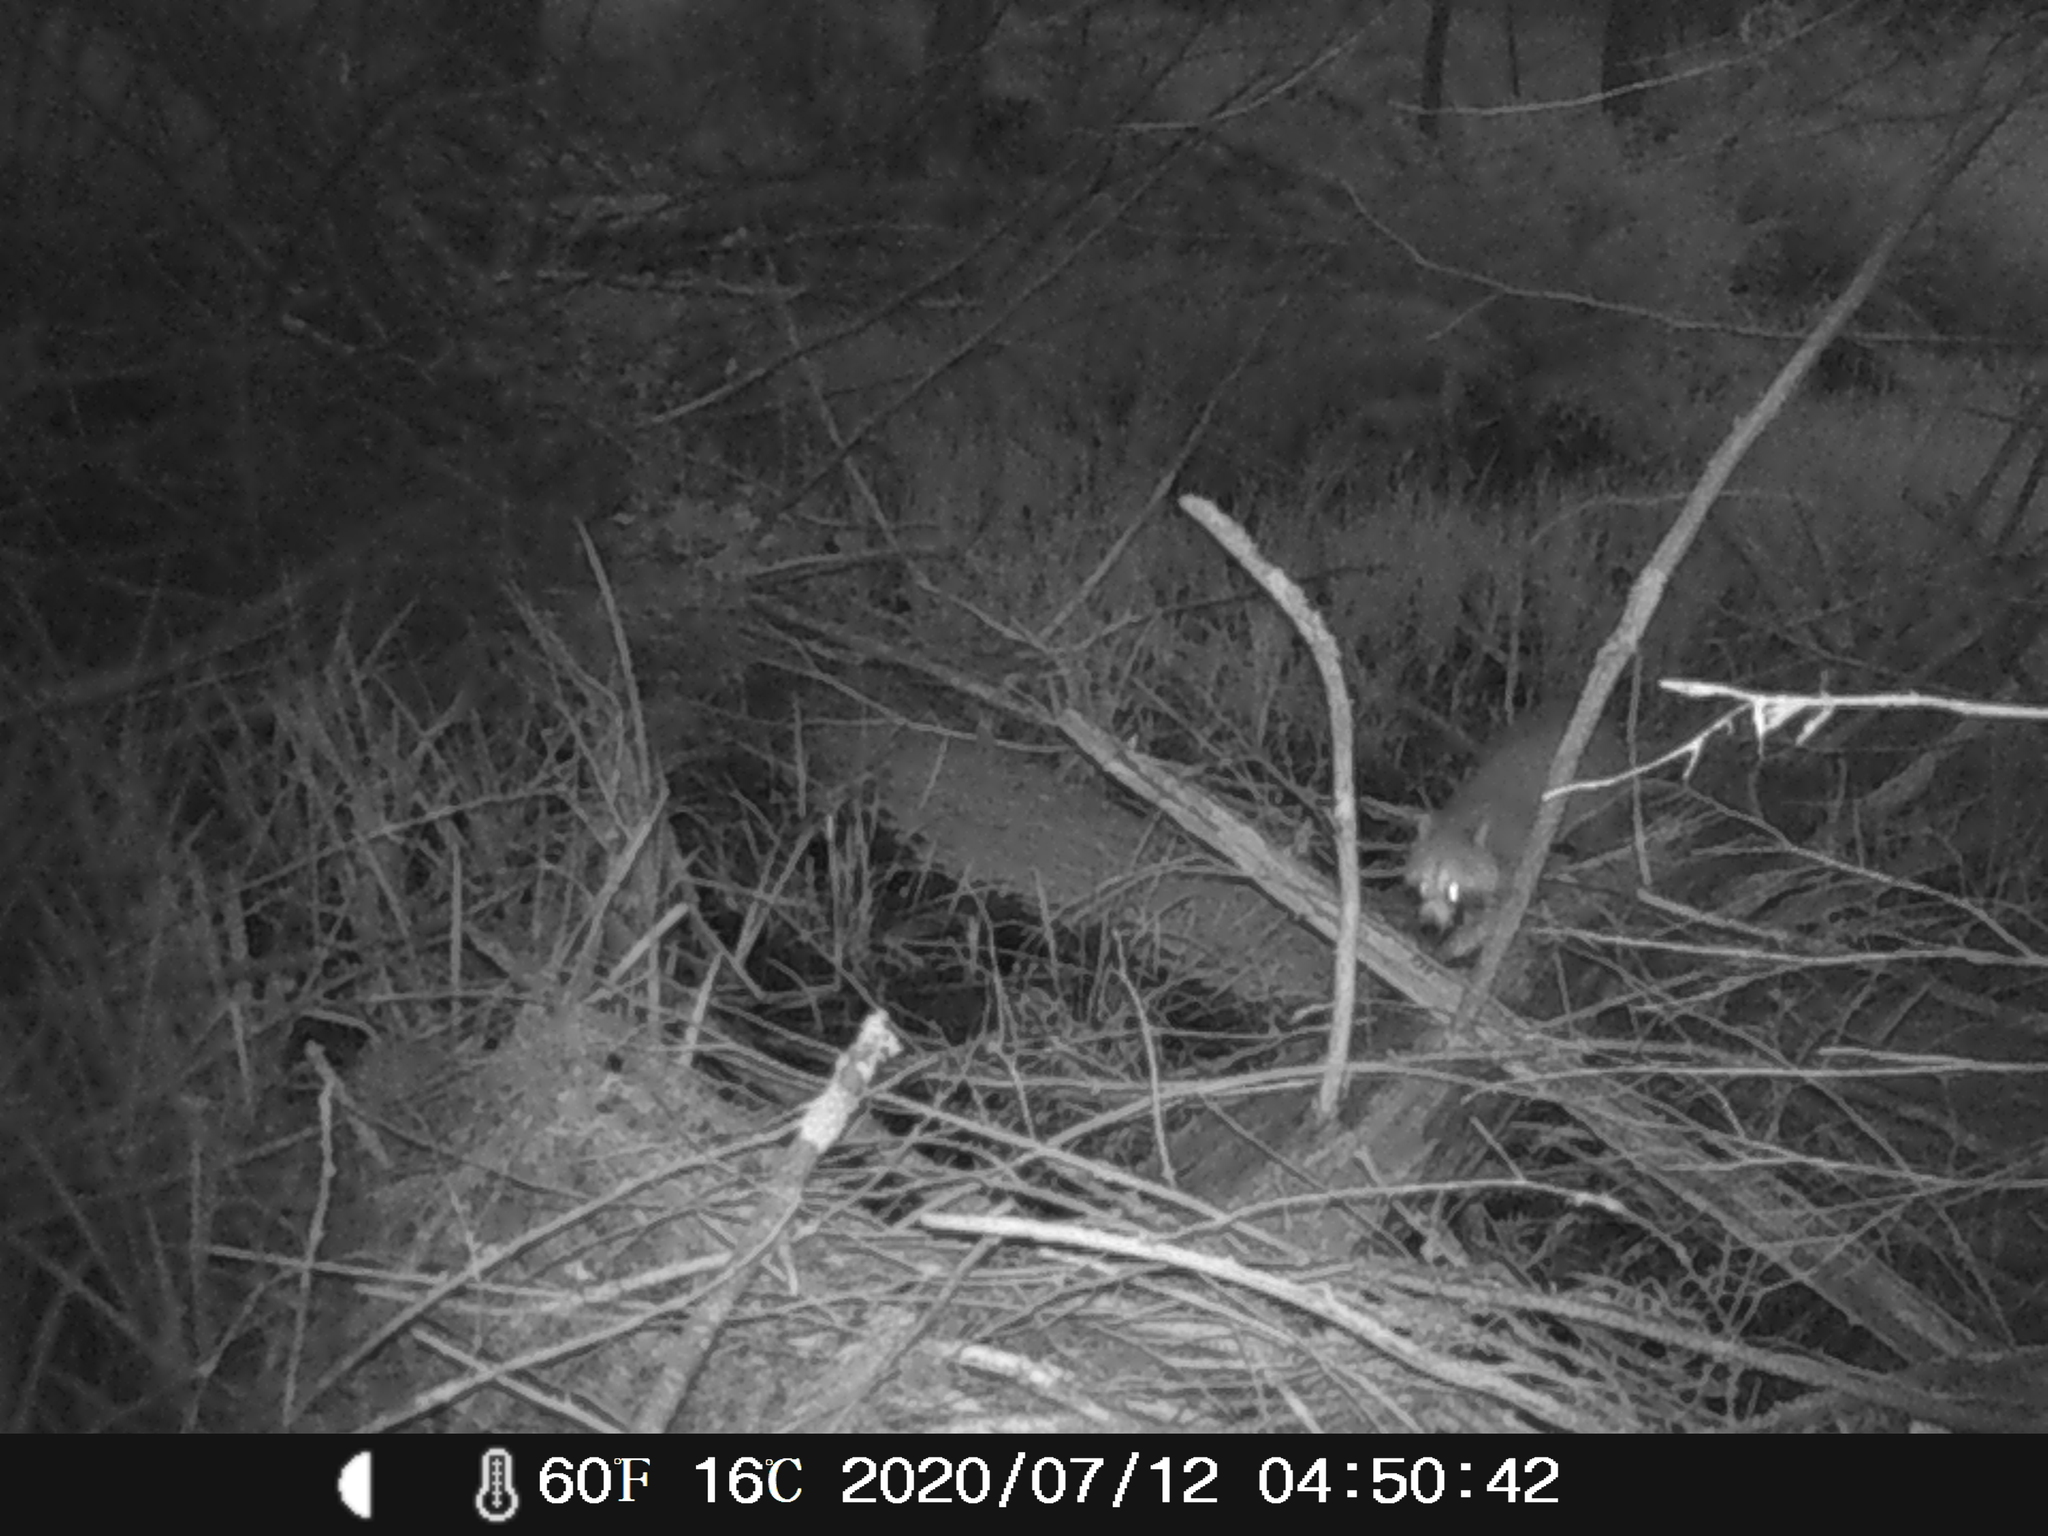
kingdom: Animalia
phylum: Chordata
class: Mammalia
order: Carnivora
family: Procyonidae
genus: Procyon
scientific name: Procyon lotor
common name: Raccoon
